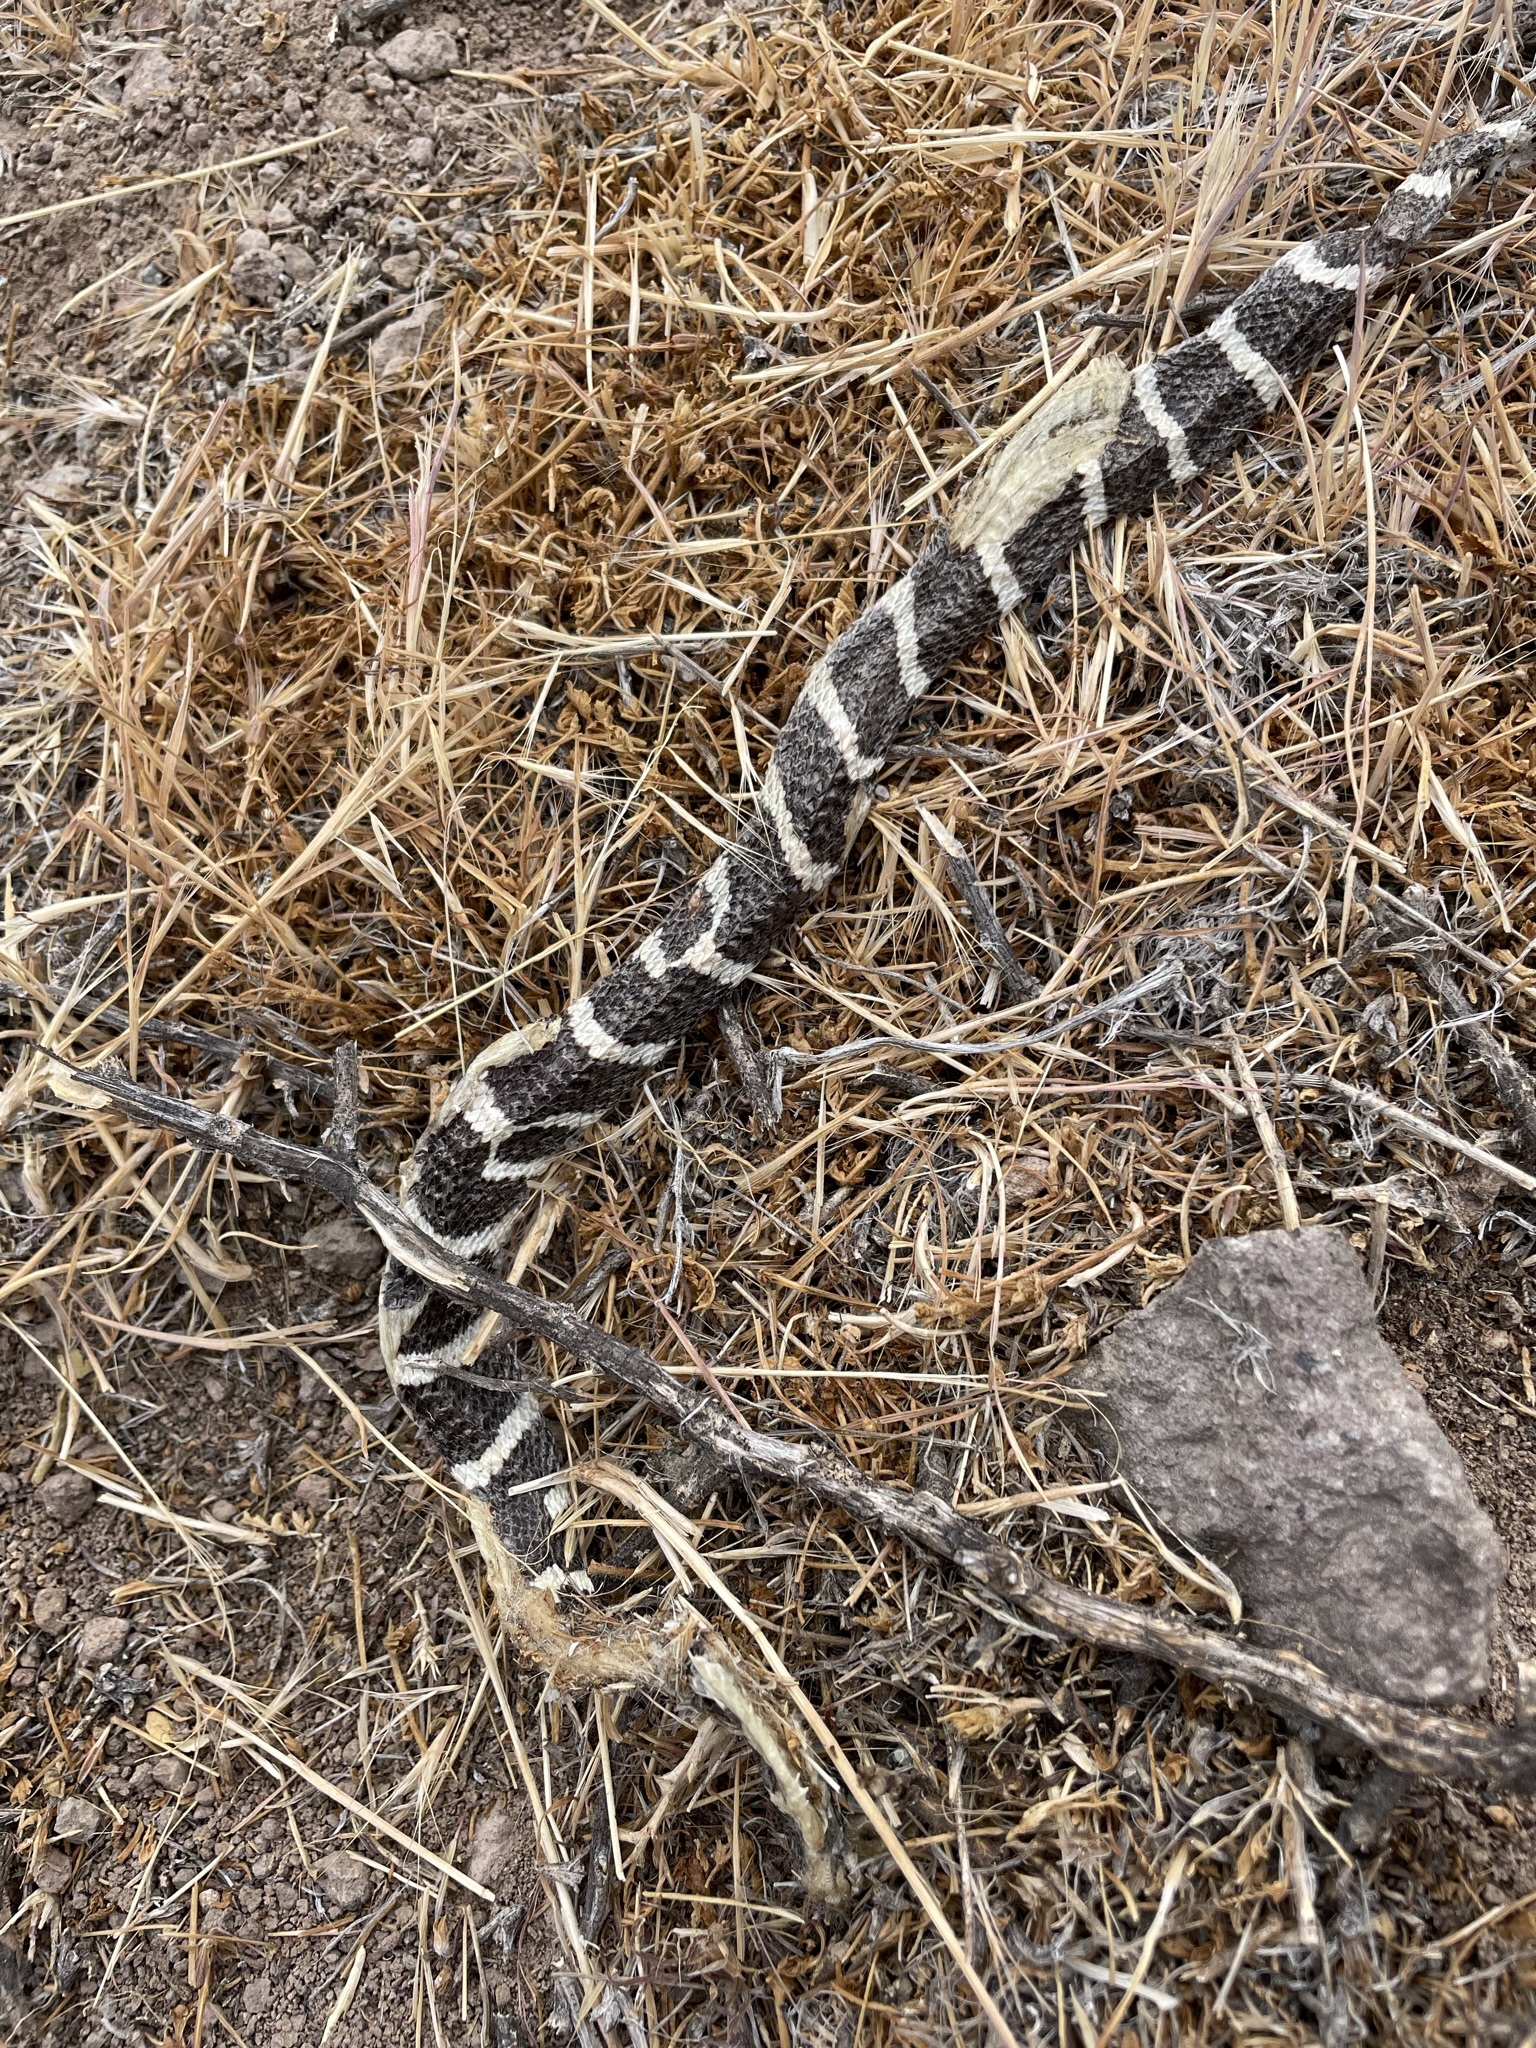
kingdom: Animalia
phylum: Chordata
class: Squamata
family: Colubridae
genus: Lampropeltis
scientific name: Lampropeltis californiae
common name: California kingsnake
